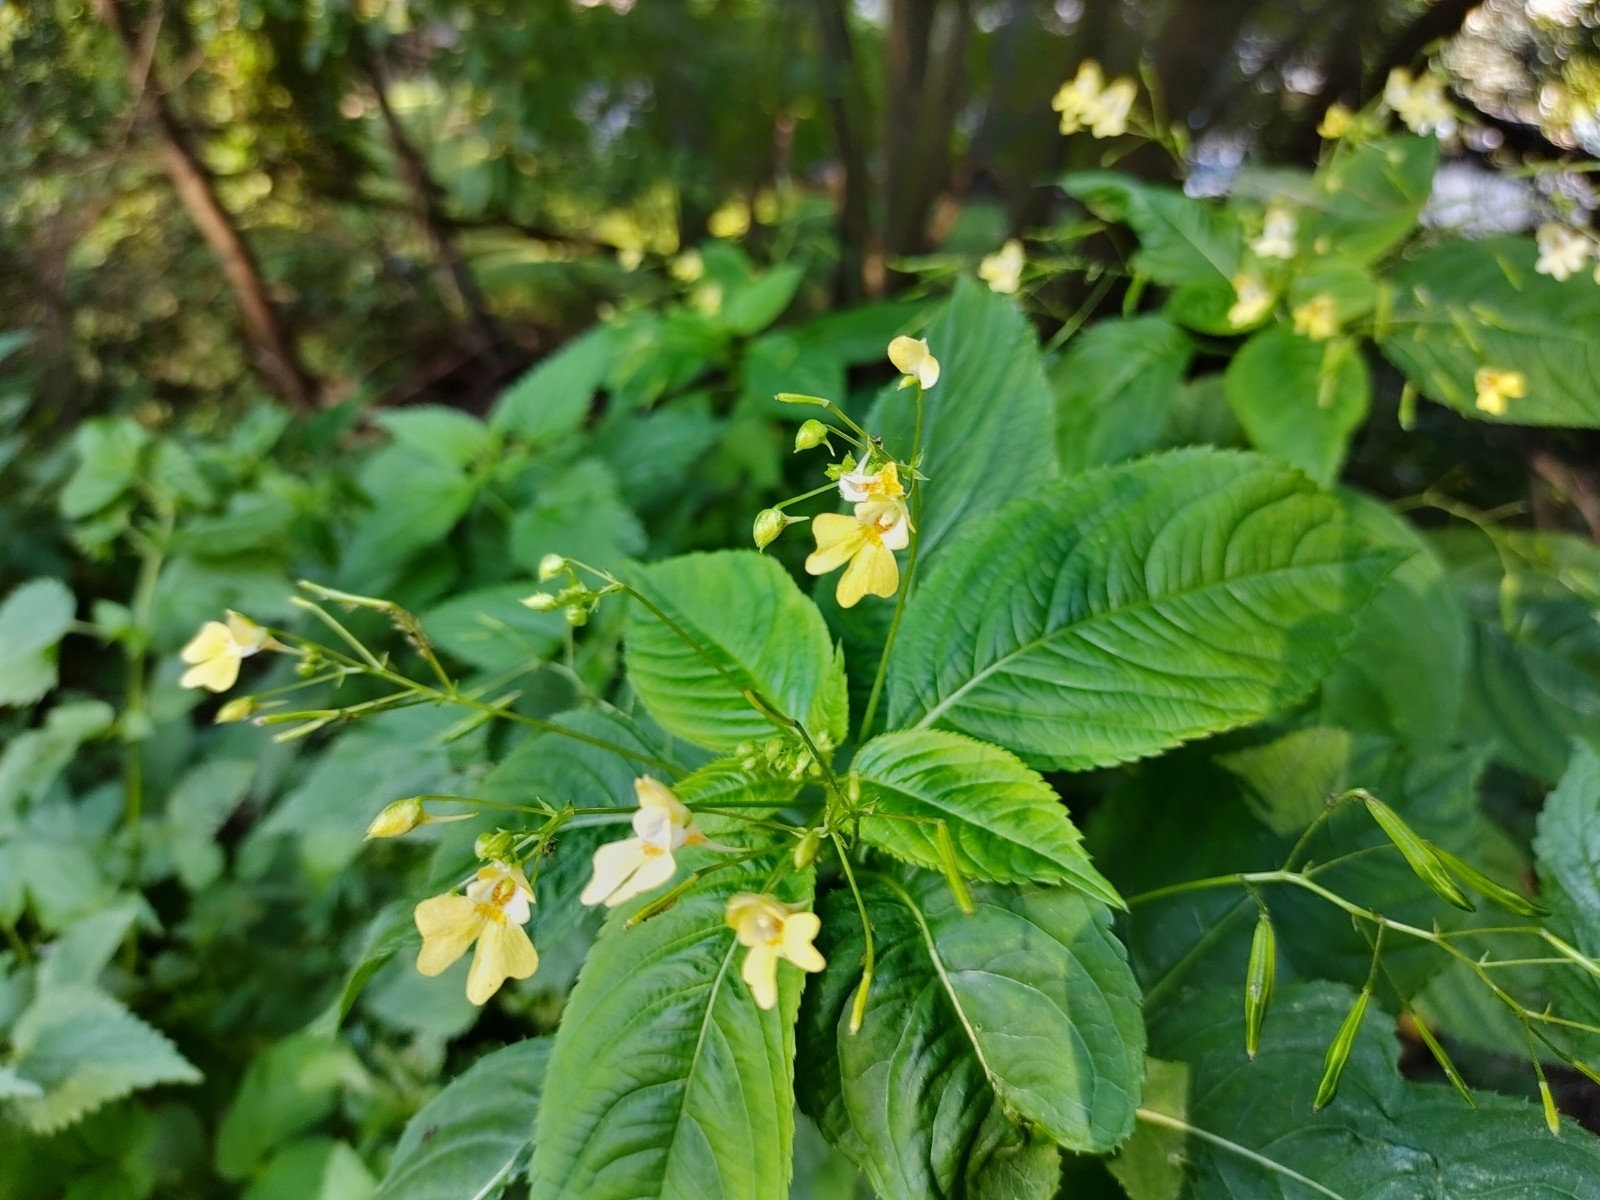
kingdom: Plantae
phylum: Tracheophyta
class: Magnoliopsida
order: Ericales
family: Balsaminaceae
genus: Impatiens
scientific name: Impatiens parviflora
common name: Small balsam
